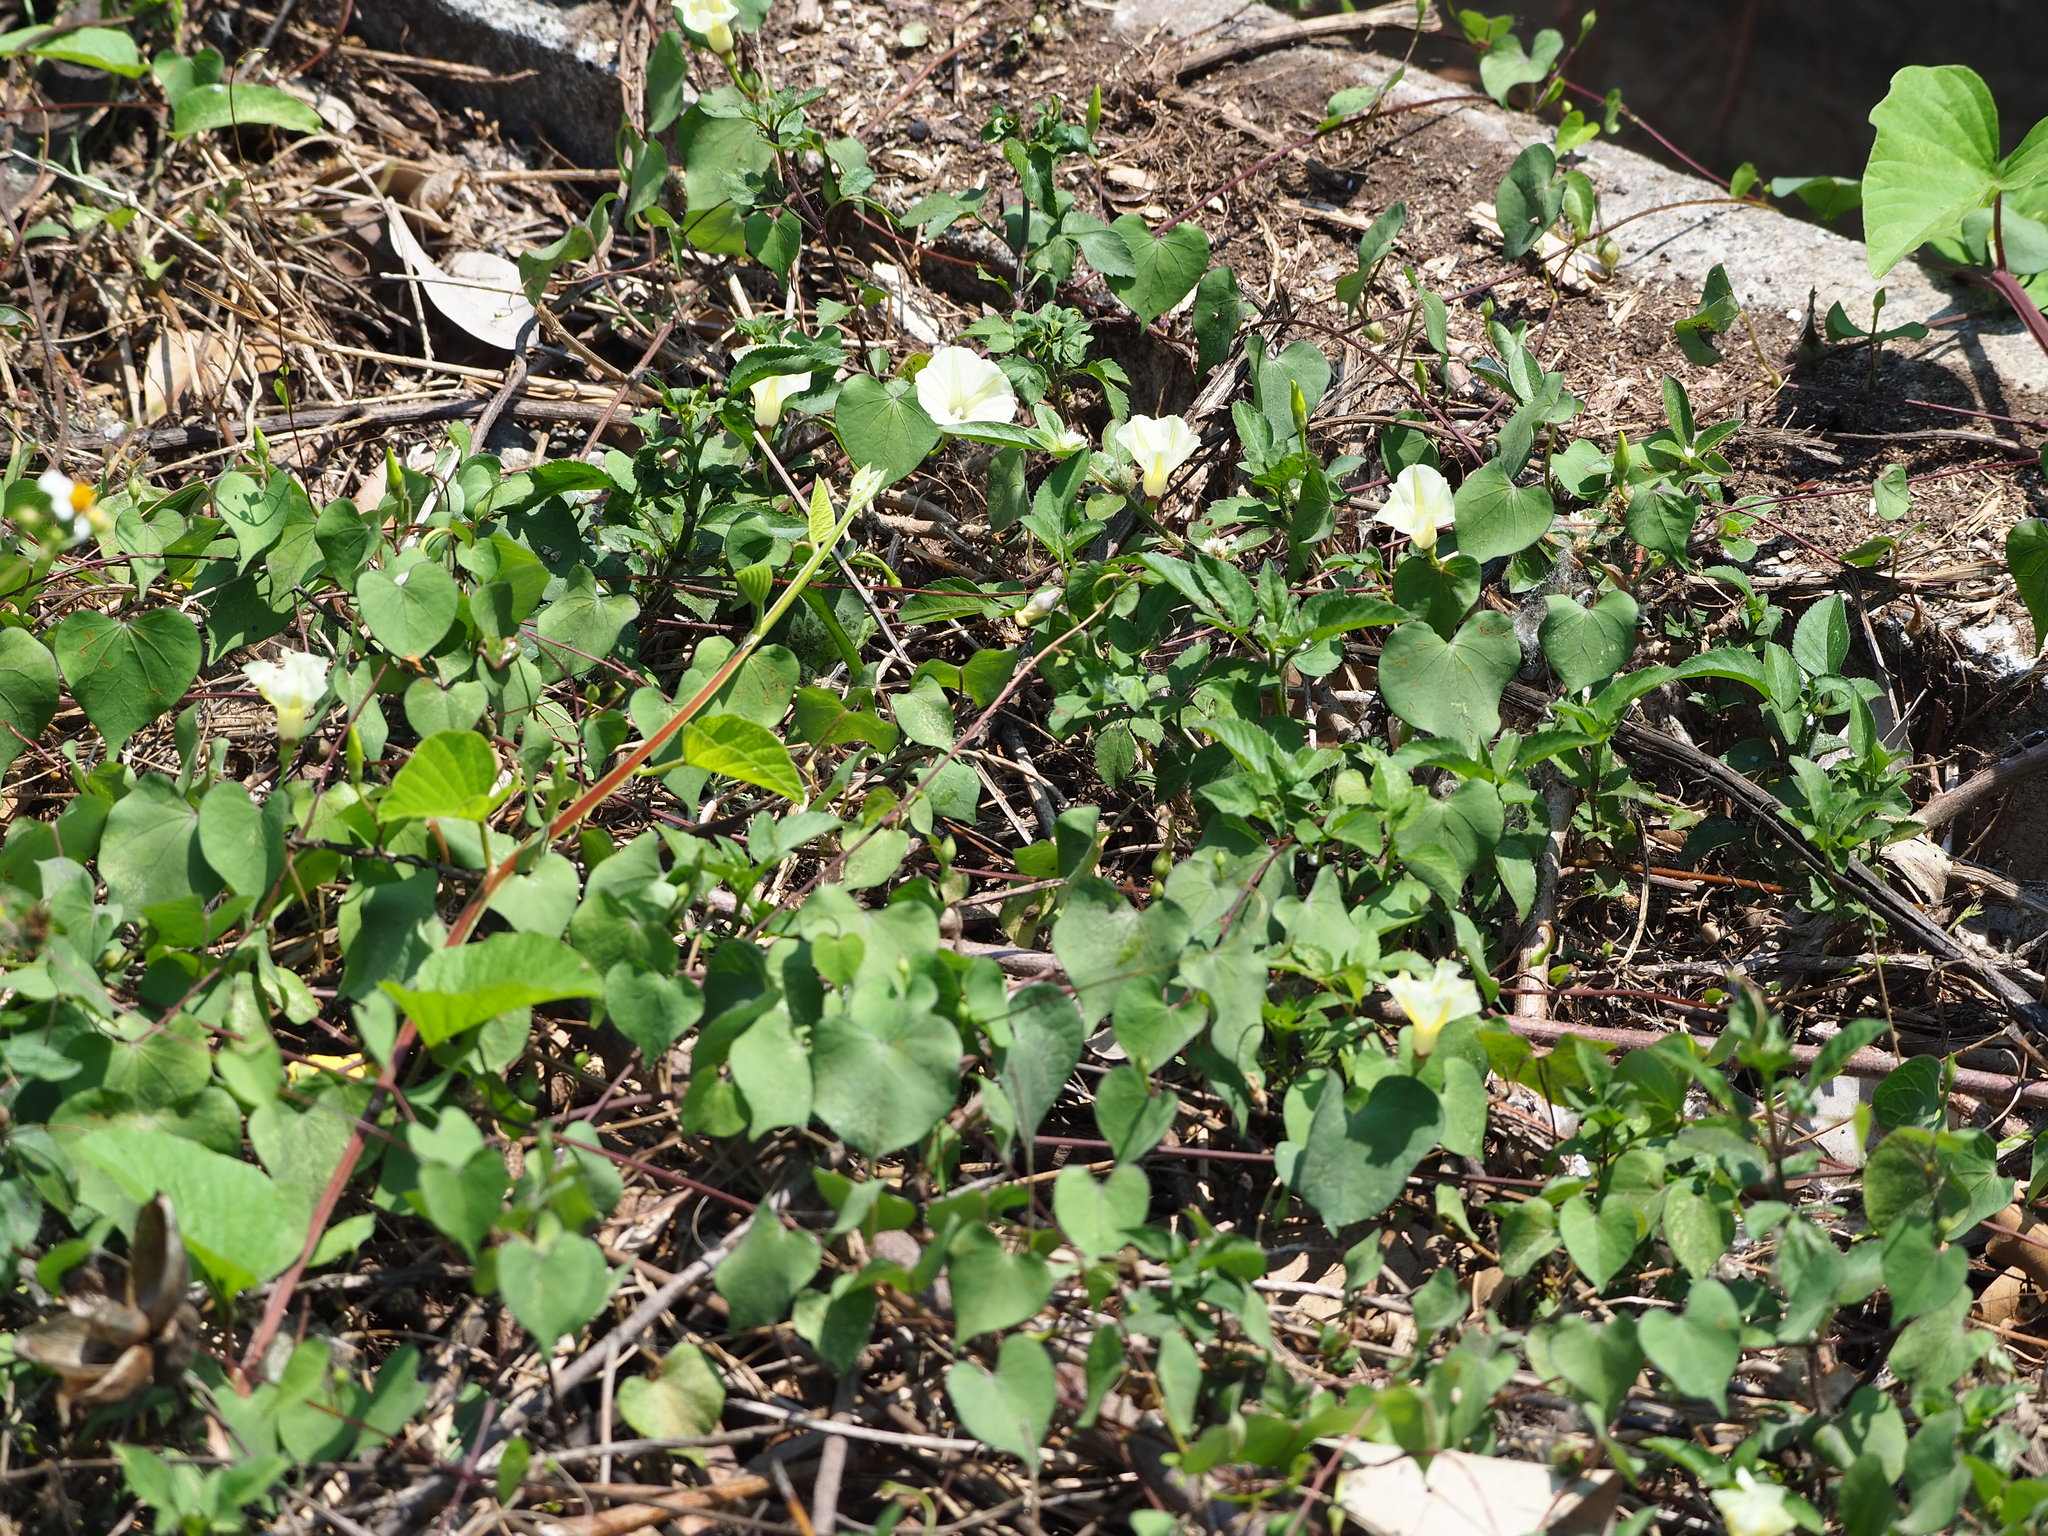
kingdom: Plantae
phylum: Tracheophyta
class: Magnoliopsida
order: Solanales
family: Convolvulaceae
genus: Ipomoea
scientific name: Ipomoea obscura
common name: Obscure morning-glory
